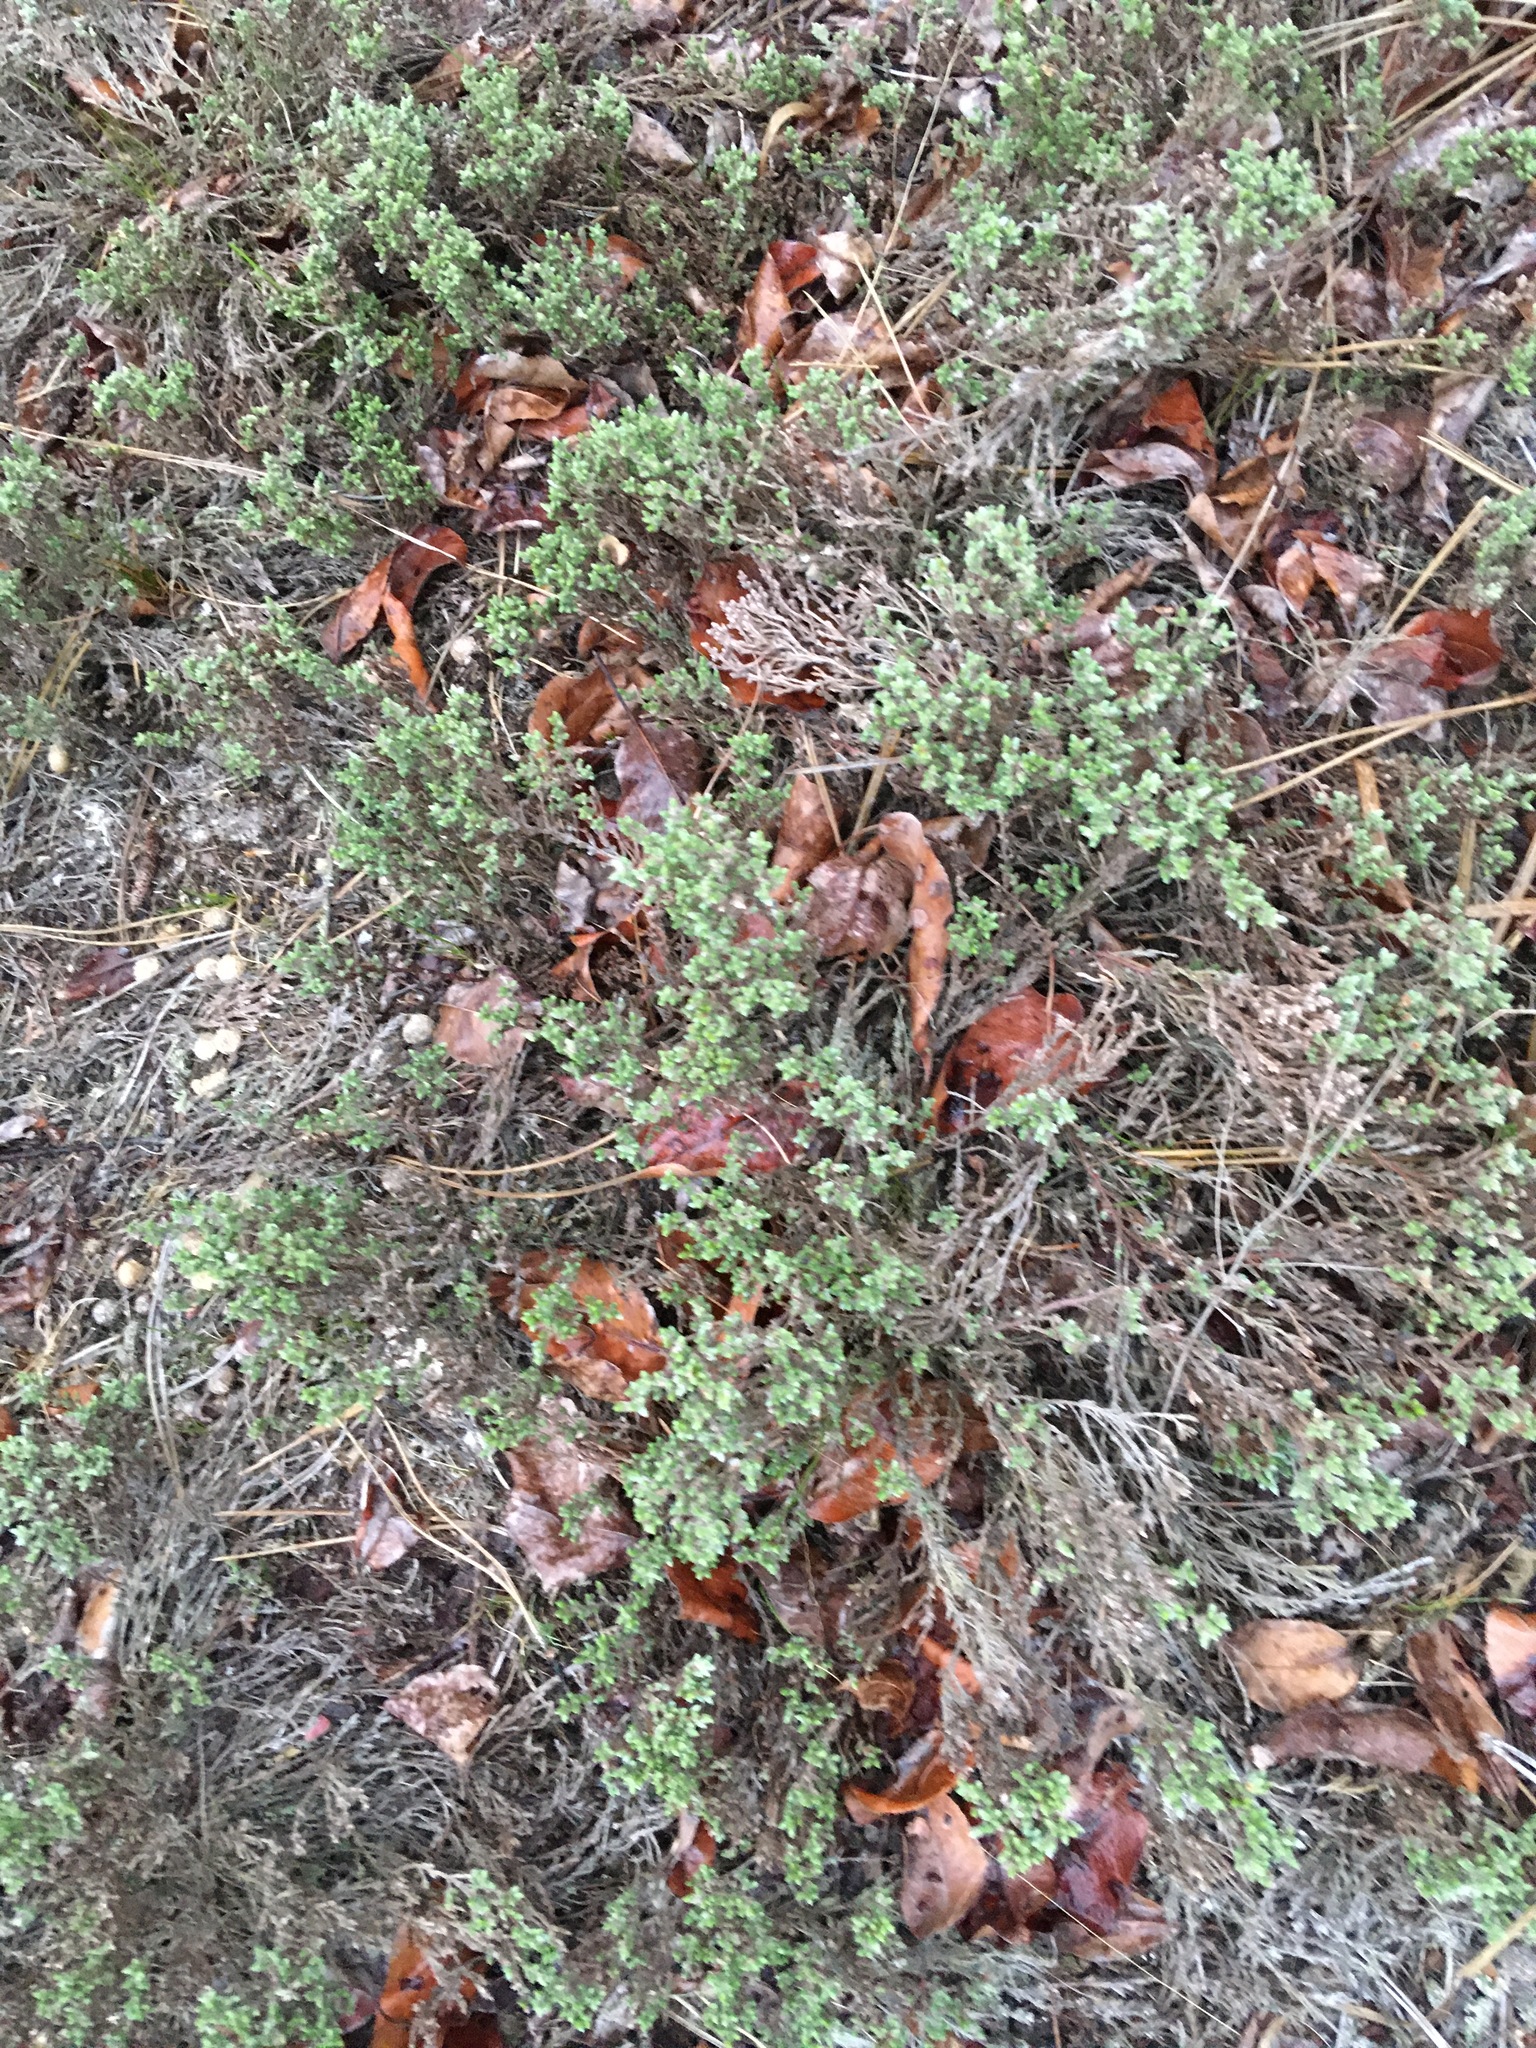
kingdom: Plantae
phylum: Tracheophyta
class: Magnoliopsida
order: Malvales
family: Cistaceae
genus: Hudsonia
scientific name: Hudsonia tomentosa
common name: Beach-heath
